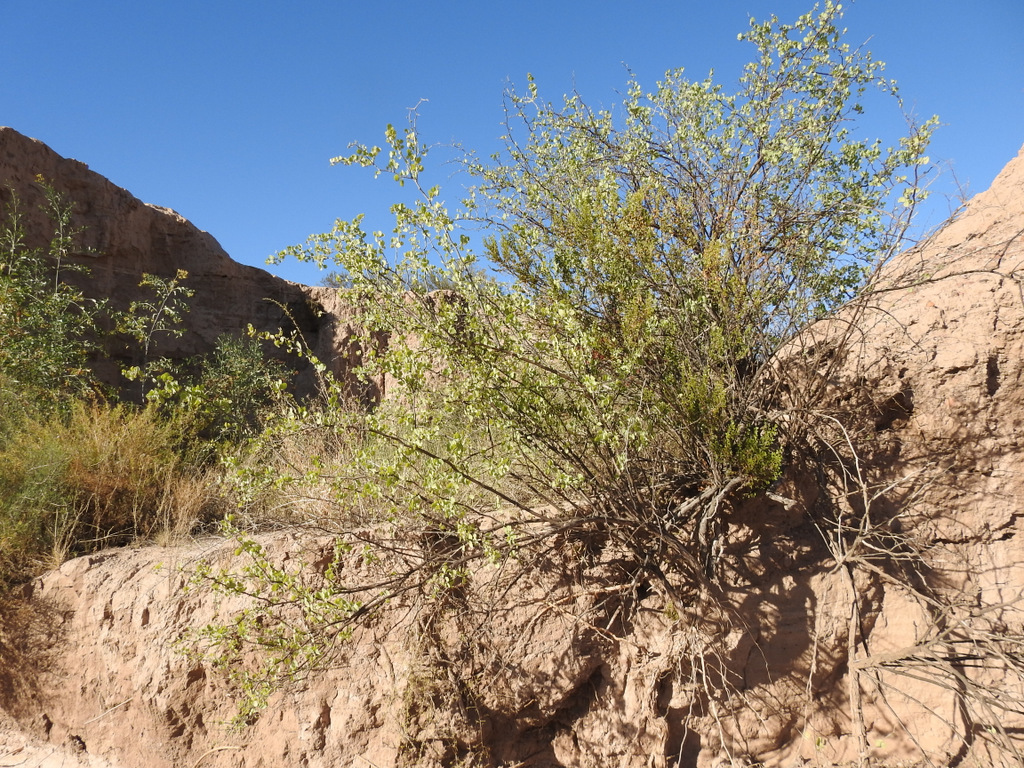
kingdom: Plantae
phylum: Tracheophyta
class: Magnoliopsida
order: Solanales
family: Solanaceae
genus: Lycium
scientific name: Lycium boerhaaviifolium
